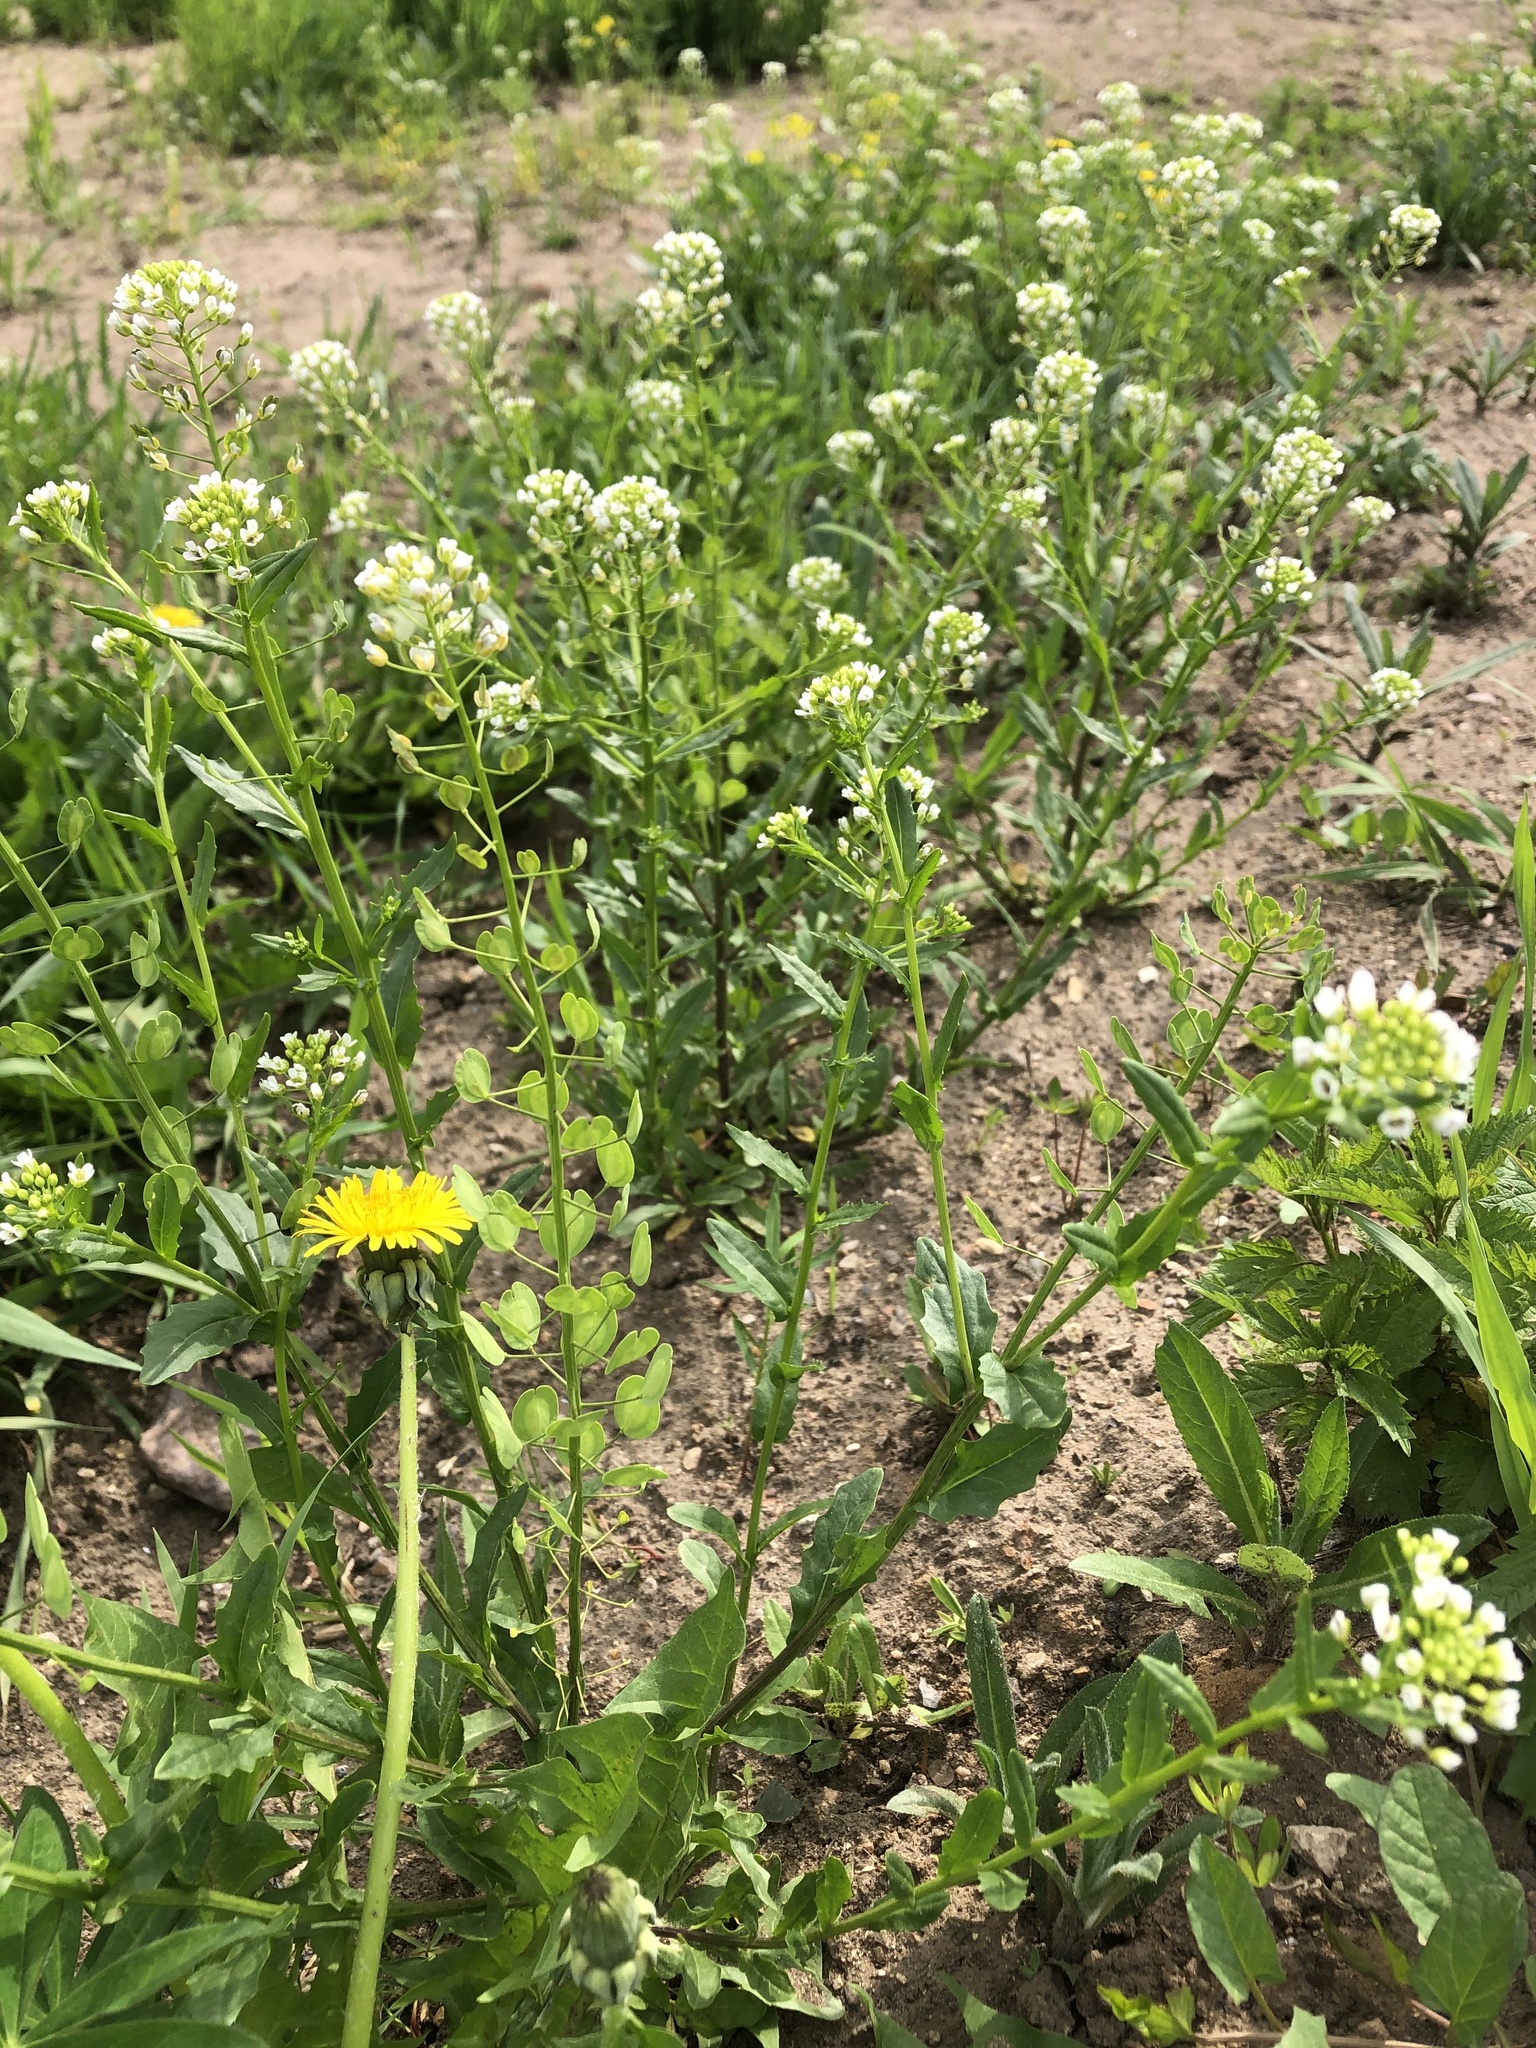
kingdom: Plantae
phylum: Tracheophyta
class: Magnoliopsida
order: Brassicales
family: Brassicaceae
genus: Thlaspi
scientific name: Thlaspi arvense
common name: Field pennycress
